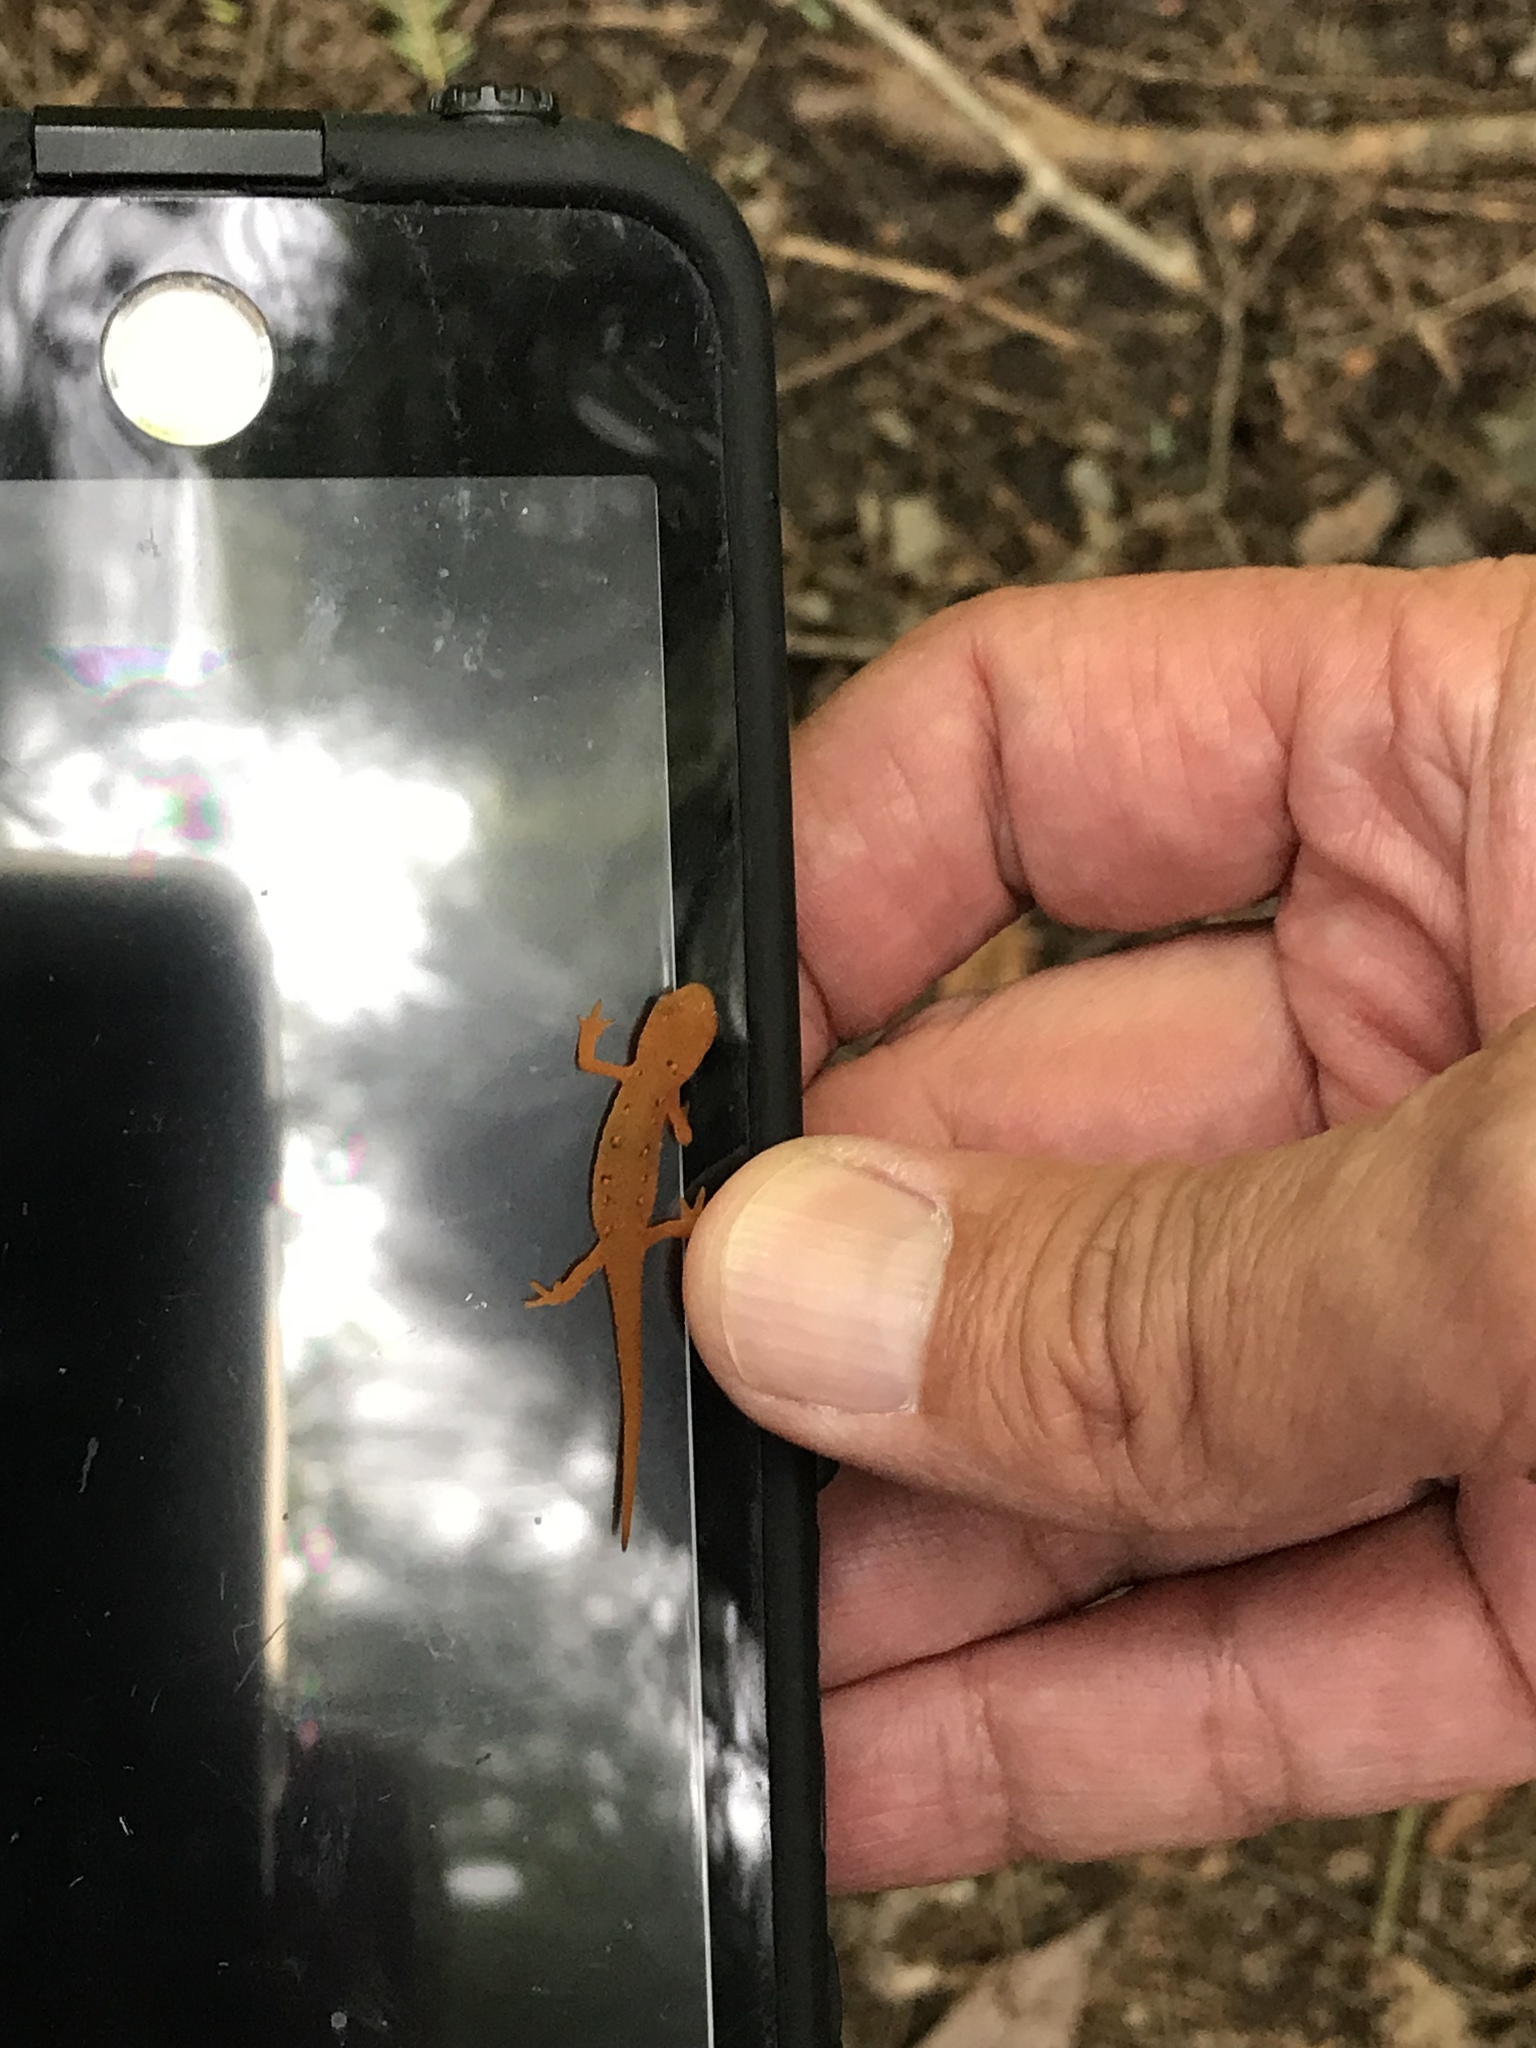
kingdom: Animalia
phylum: Chordata
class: Amphibia
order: Caudata
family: Salamandridae
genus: Notophthalmus
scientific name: Notophthalmus viridescens
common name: Eastern newt
